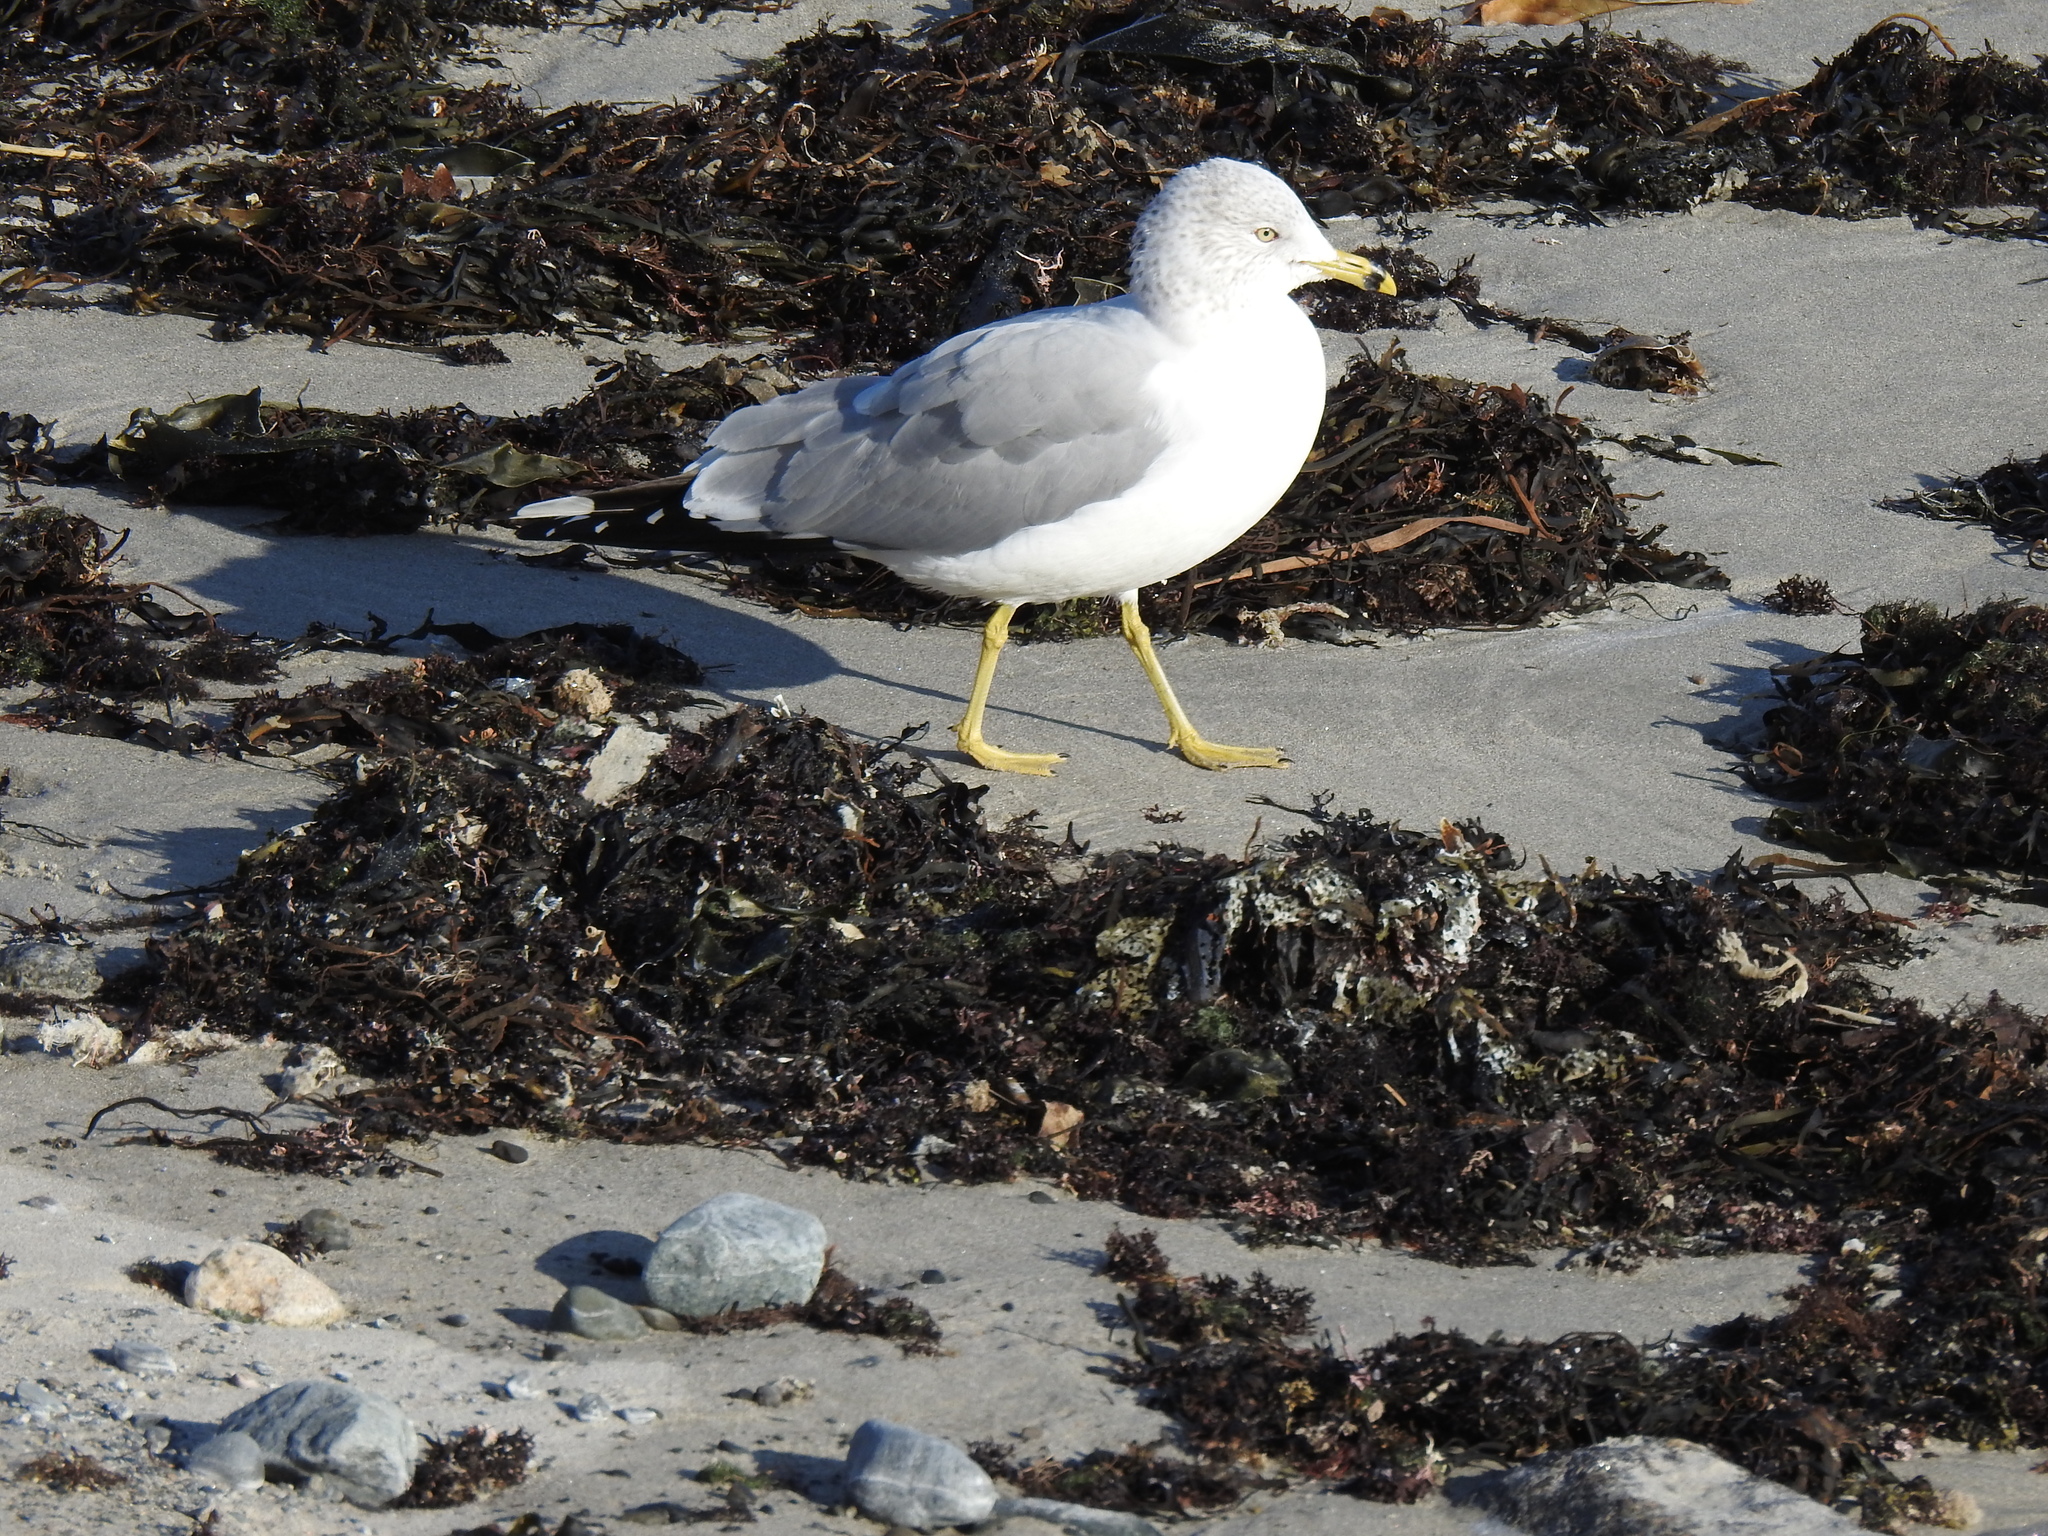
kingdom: Animalia
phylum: Chordata
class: Aves
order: Charadriiformes
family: Laridae
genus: Larus
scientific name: Larus delawarensis
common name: Ring-billed gull
